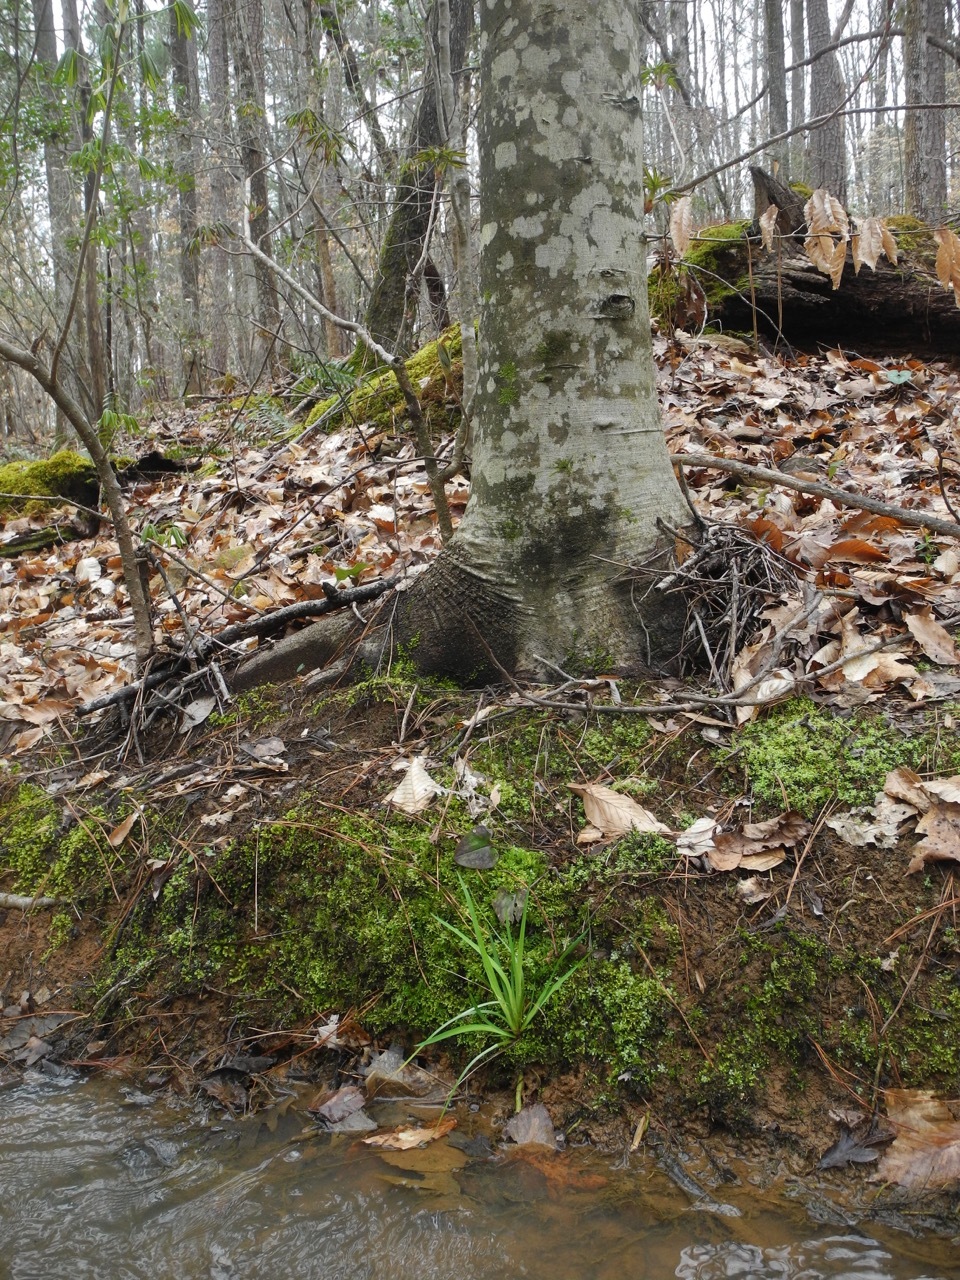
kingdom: Plantae
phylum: Tracheophyta
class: Liliopsida
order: Asparagales
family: Iridaceae
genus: Iris
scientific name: Iris cristata
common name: Crested iris
